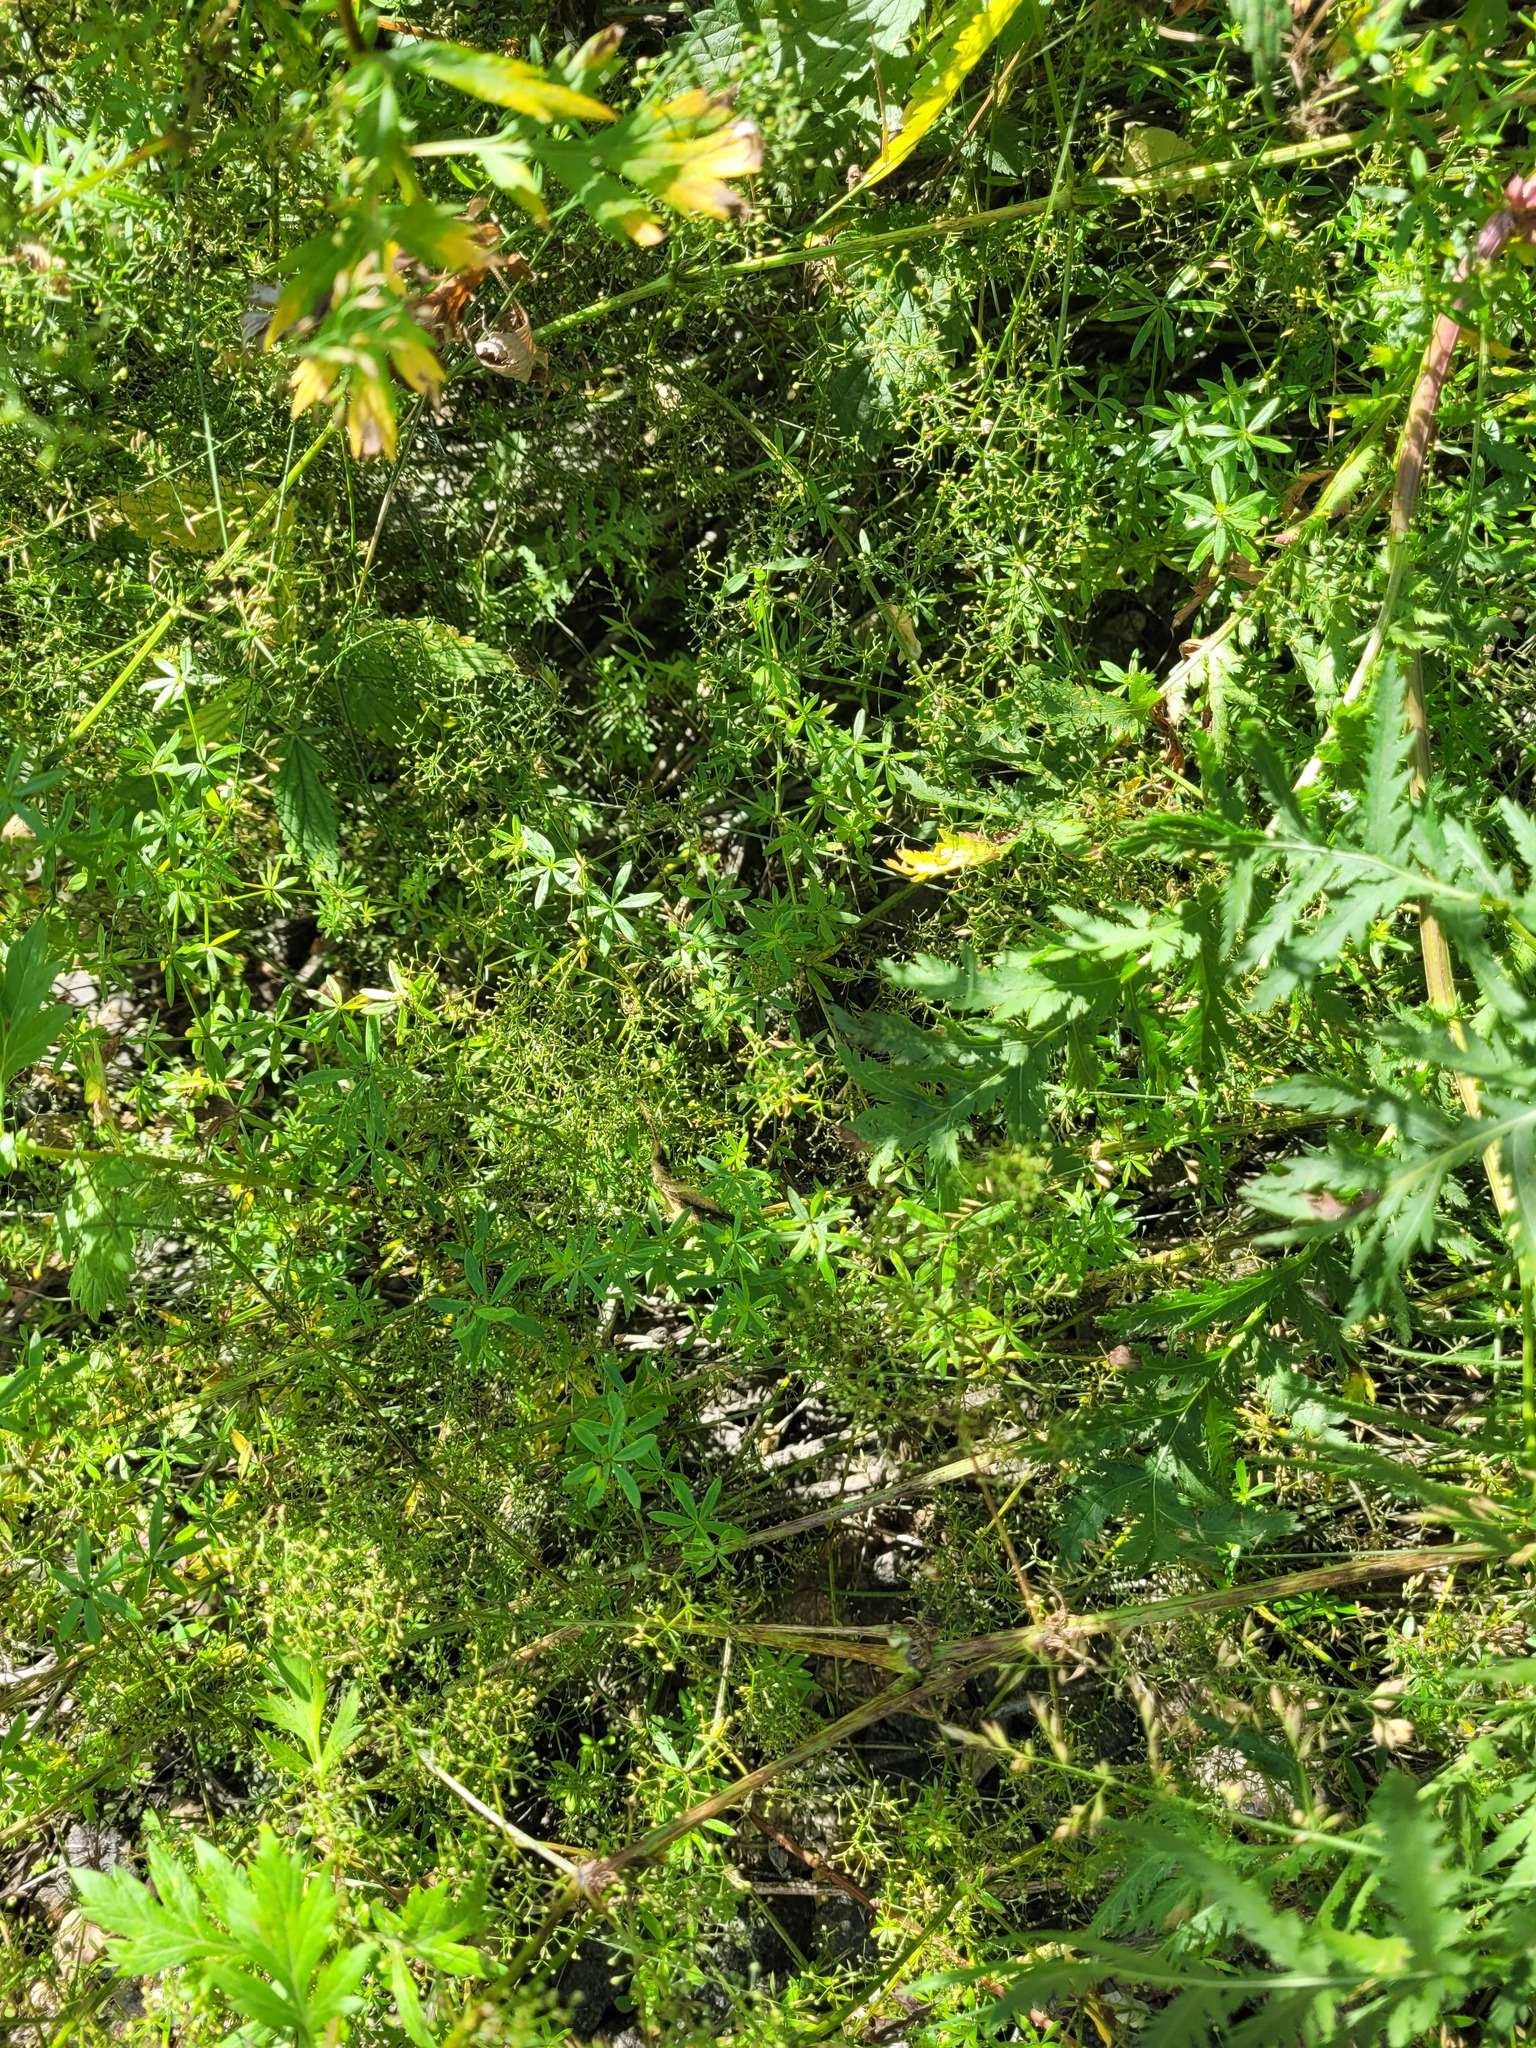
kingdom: Plantae
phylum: Tracheophyta
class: Magnoliopsida
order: Gentianales
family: Rubiaceae
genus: Galium
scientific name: Galium mollugo
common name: Hedge bedstraw
